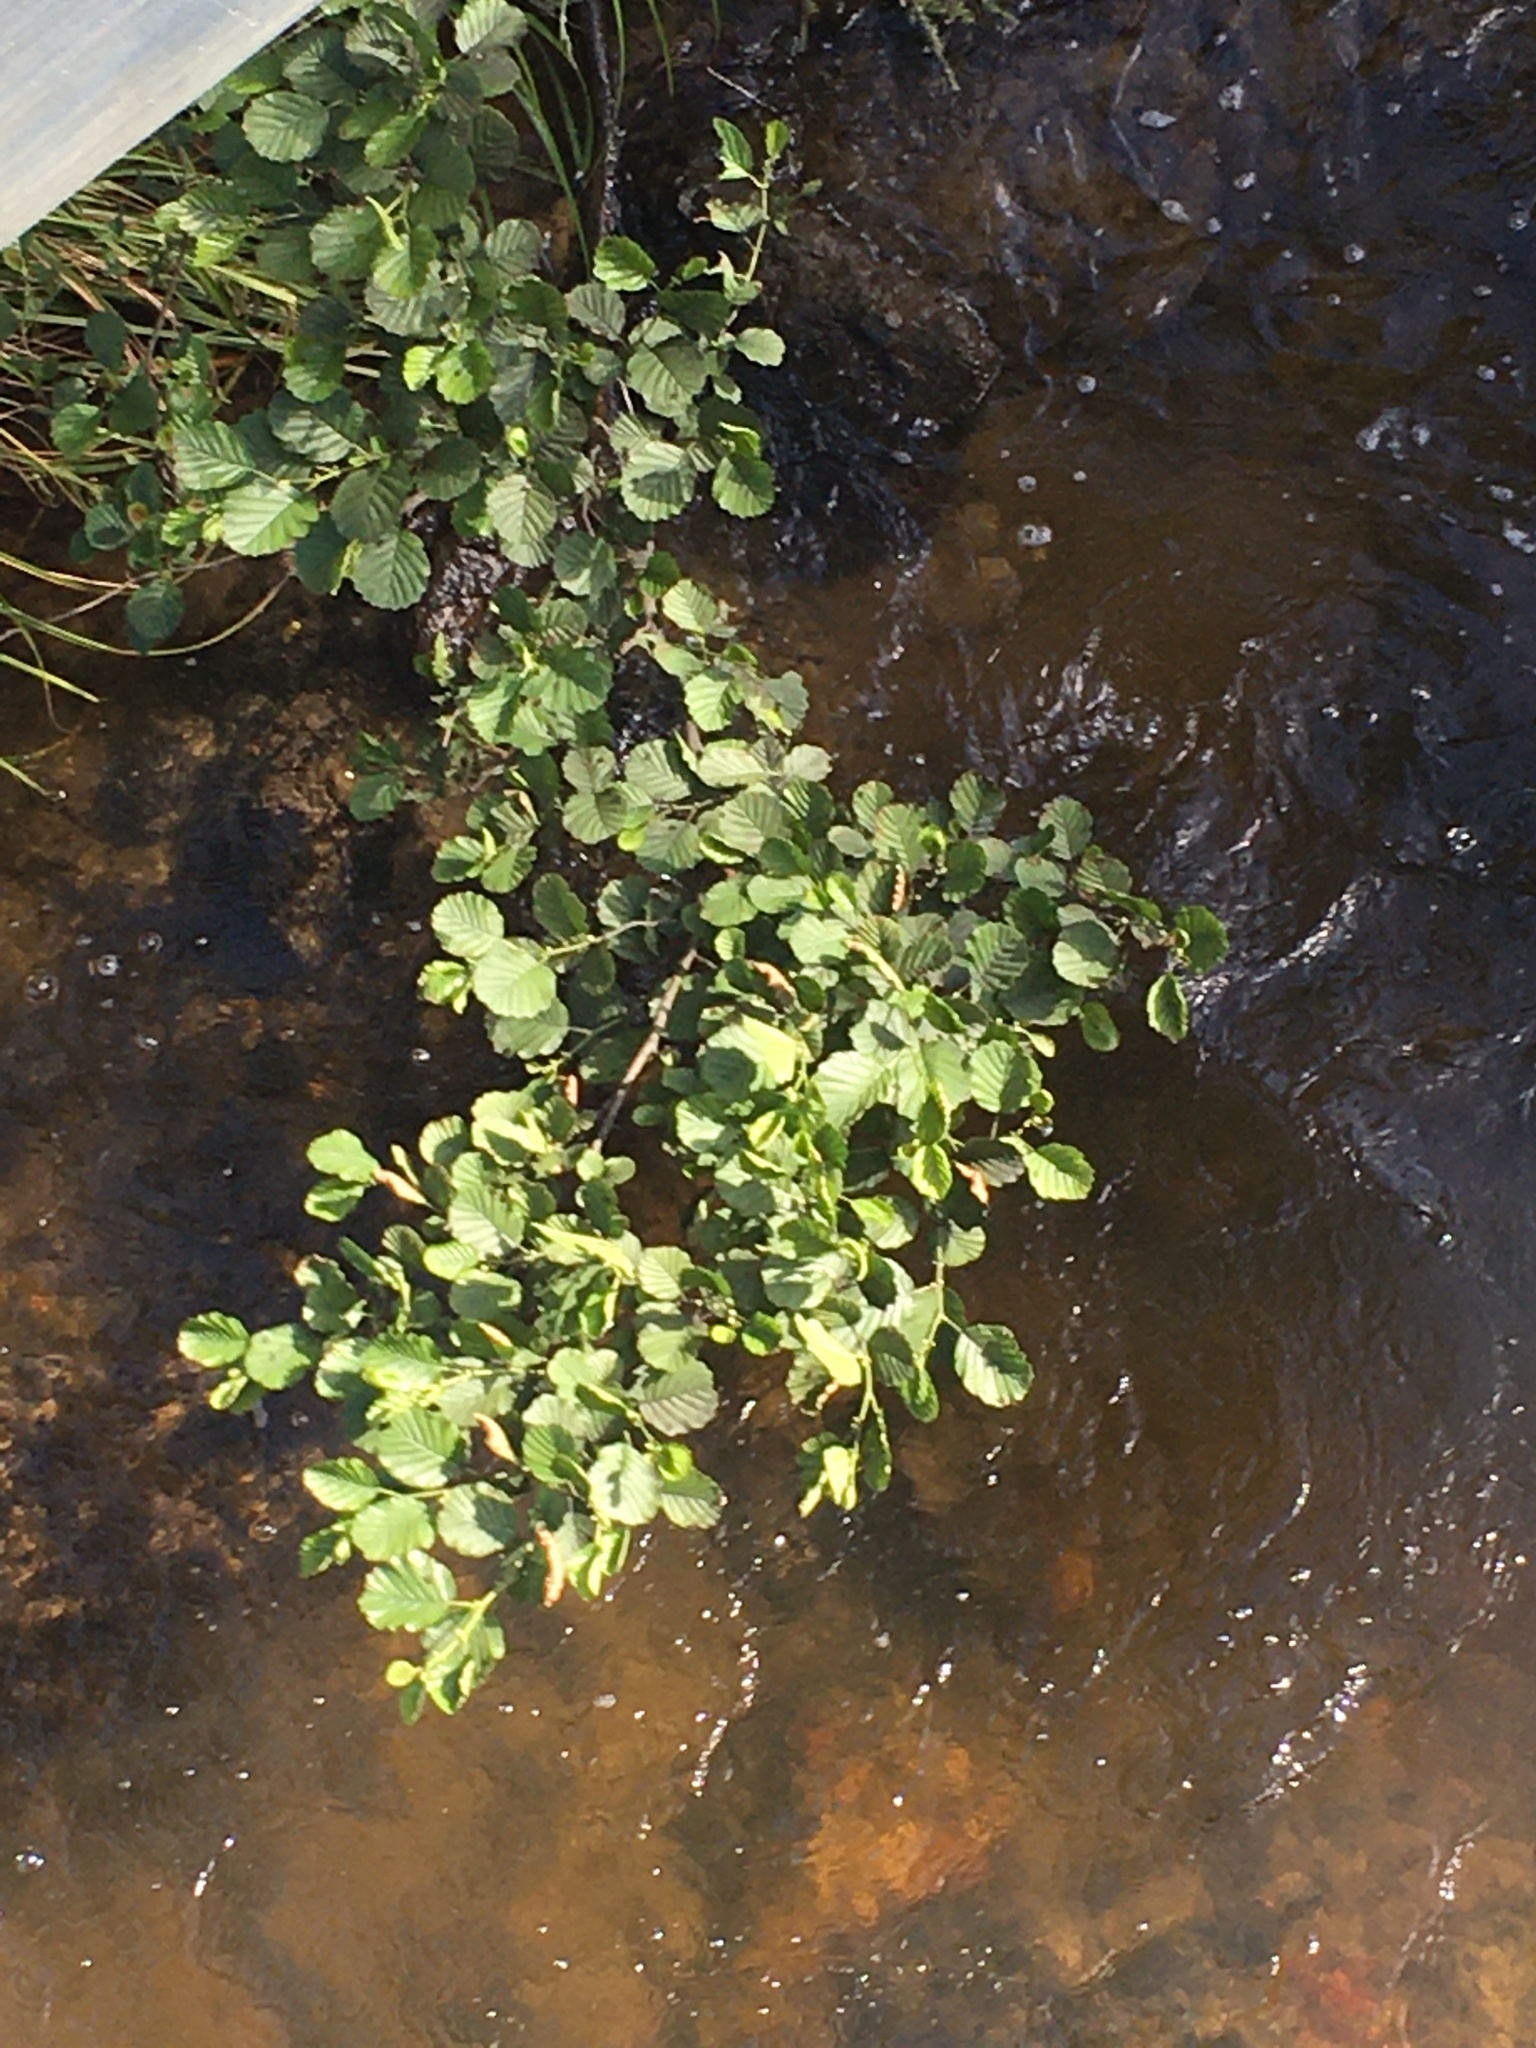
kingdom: Plantae
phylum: Tracheophyta
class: Magnoliopsida
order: Fagales
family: Betulaceae
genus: Alnus
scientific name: Alnus glutinosa
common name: Black alder
